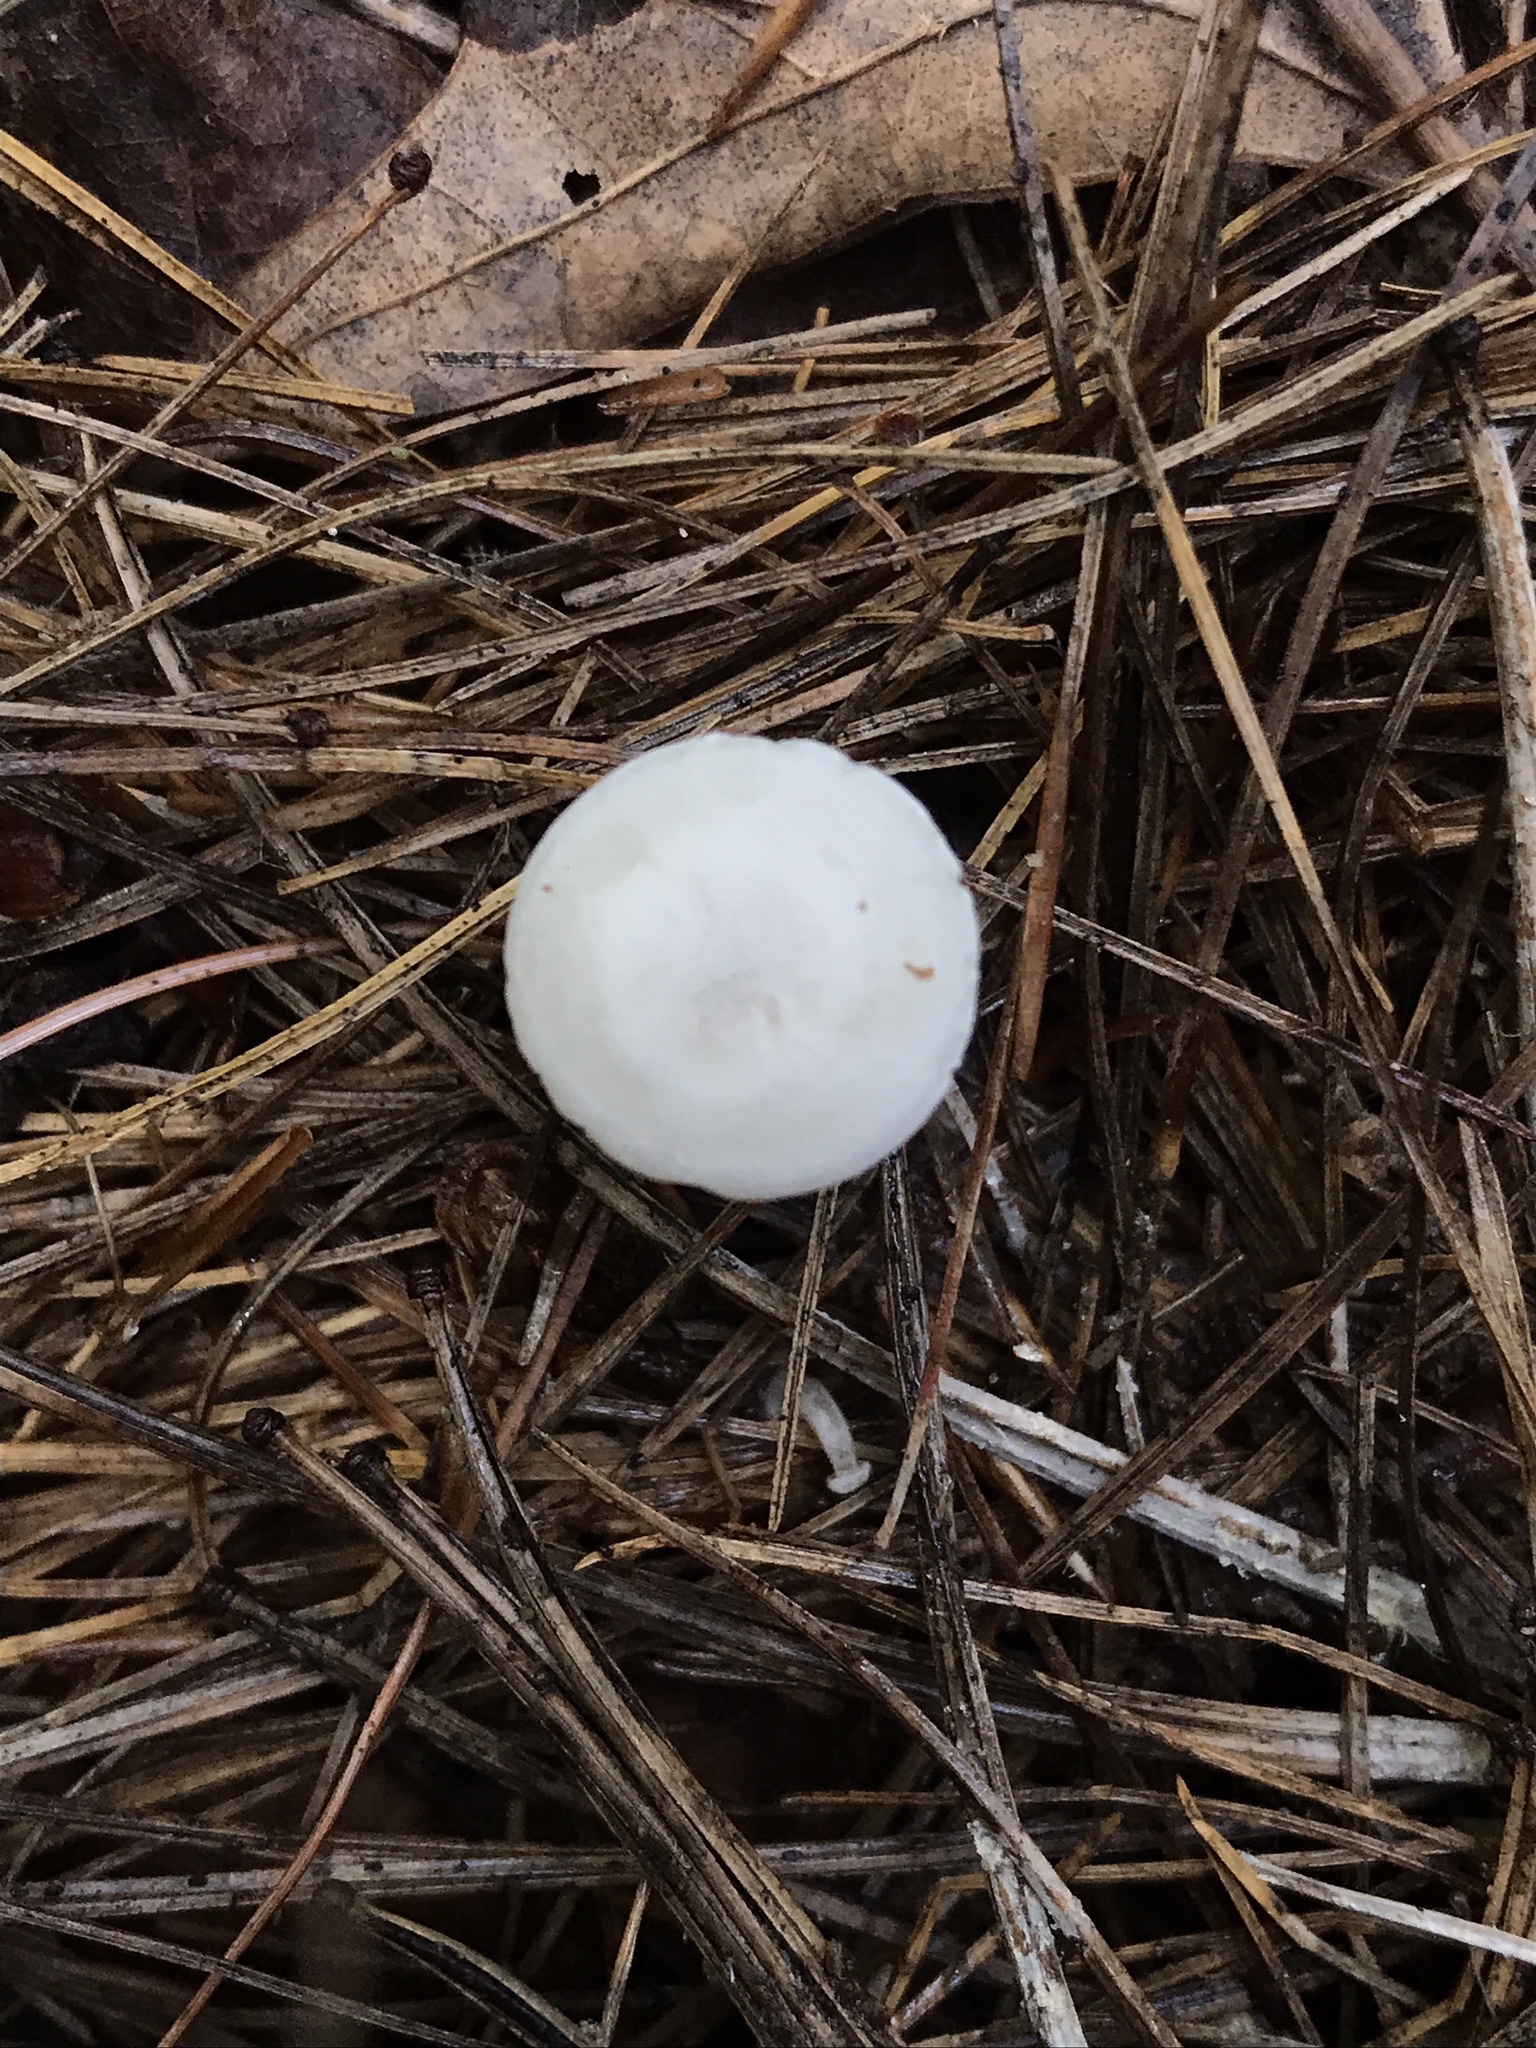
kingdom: Fungi
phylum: Basidiomycota
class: Agaricomycetes
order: Agaricales
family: Tricholomataceae
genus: Leucocybe
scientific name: Leucocybe candicans
